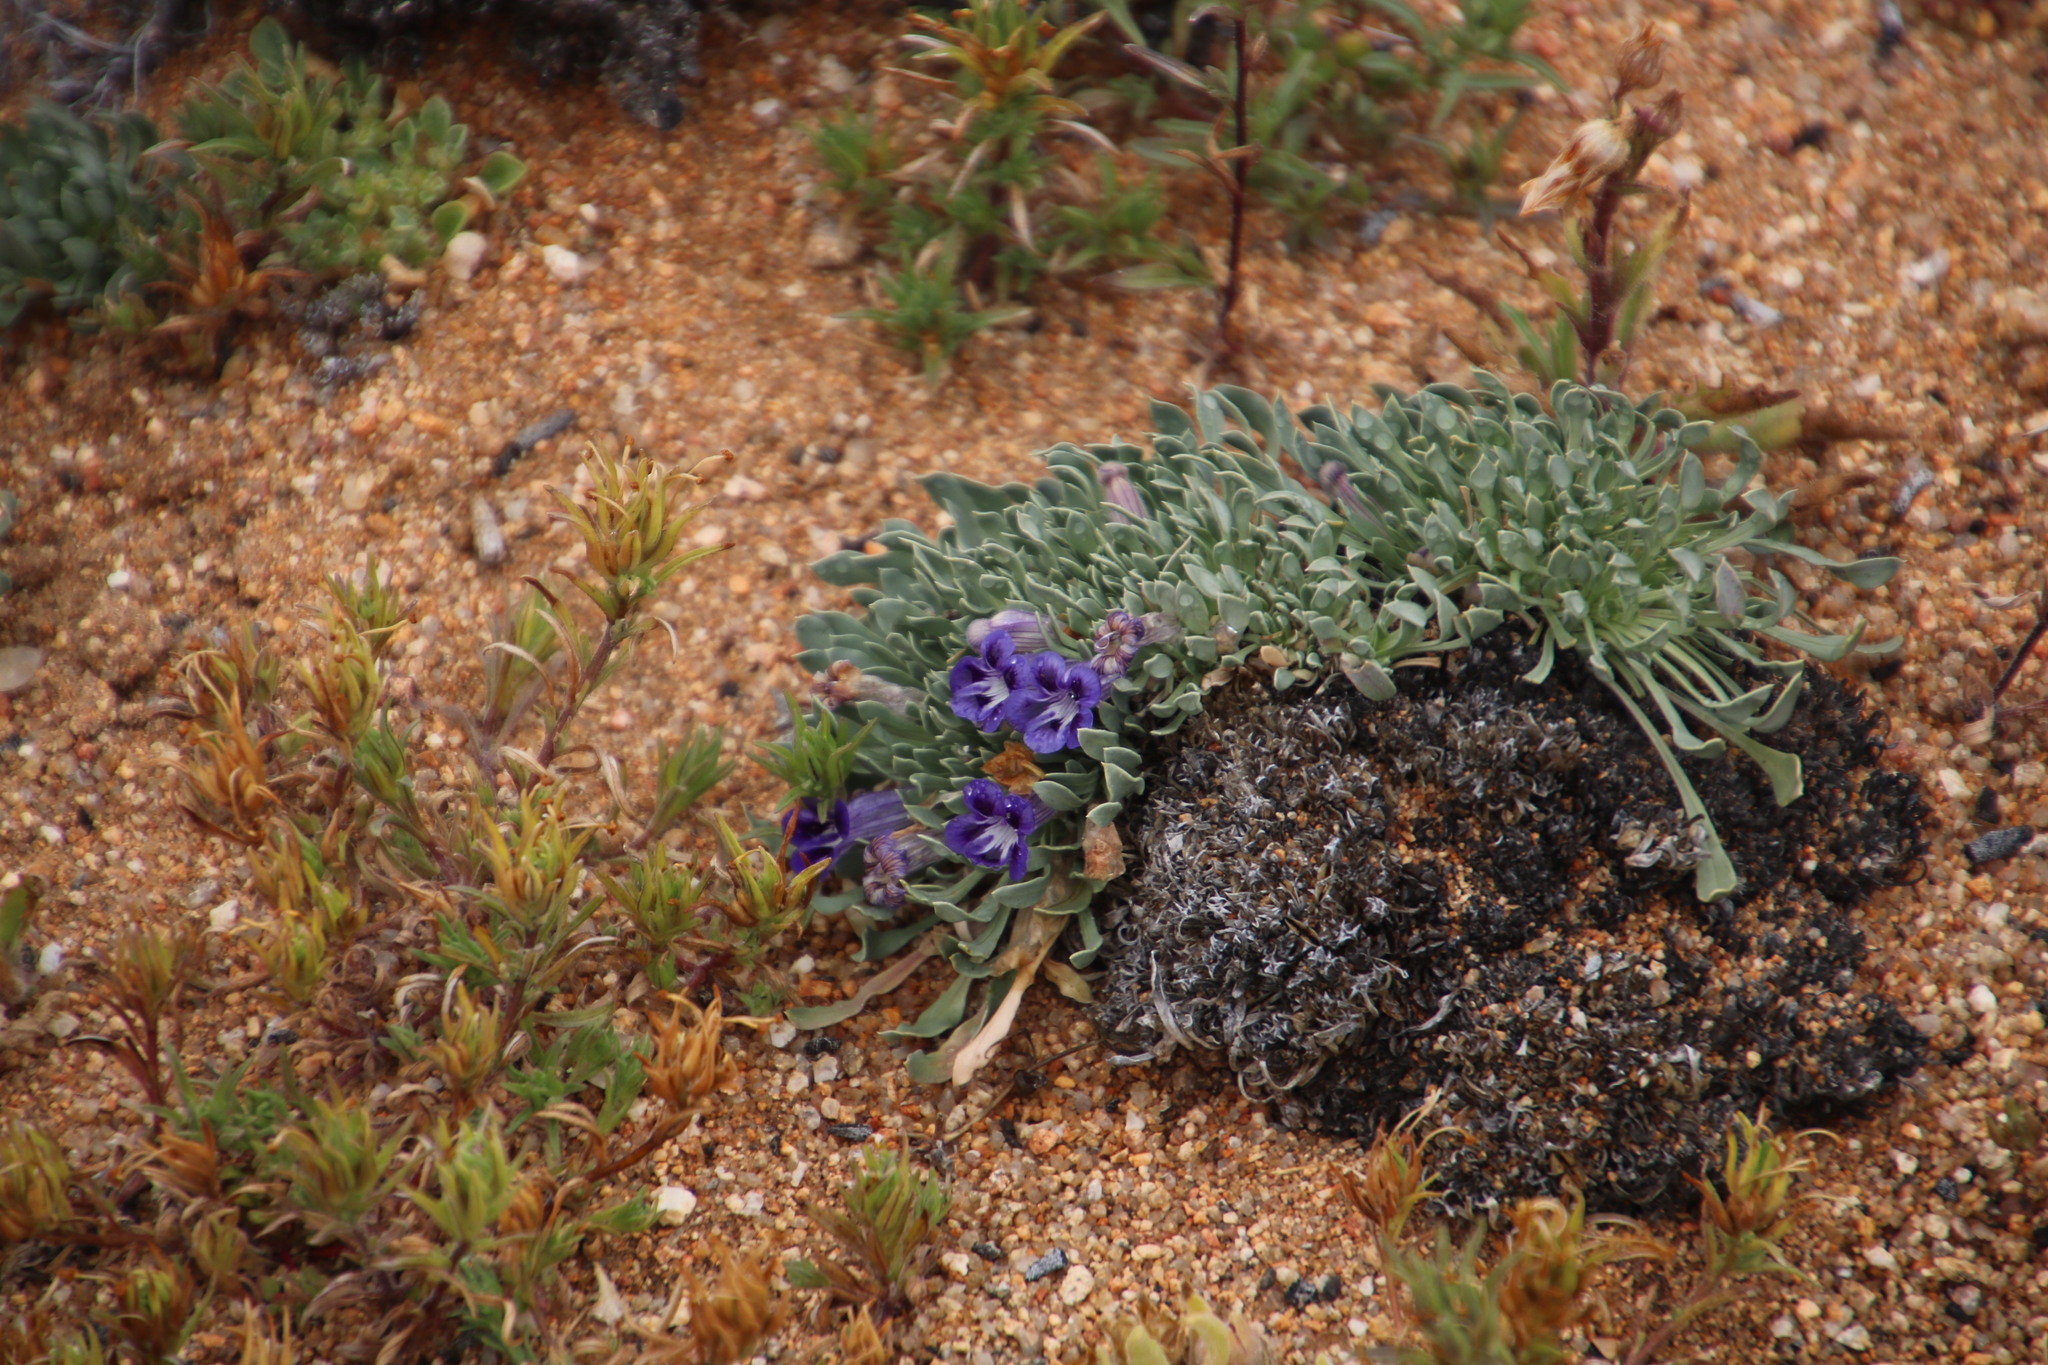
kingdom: Plantae
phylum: Tracheophyta
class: Magnoliopsida
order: Lamiales
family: Scrophulariaceae
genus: Aptosimum
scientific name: Aptosimum indivisum
